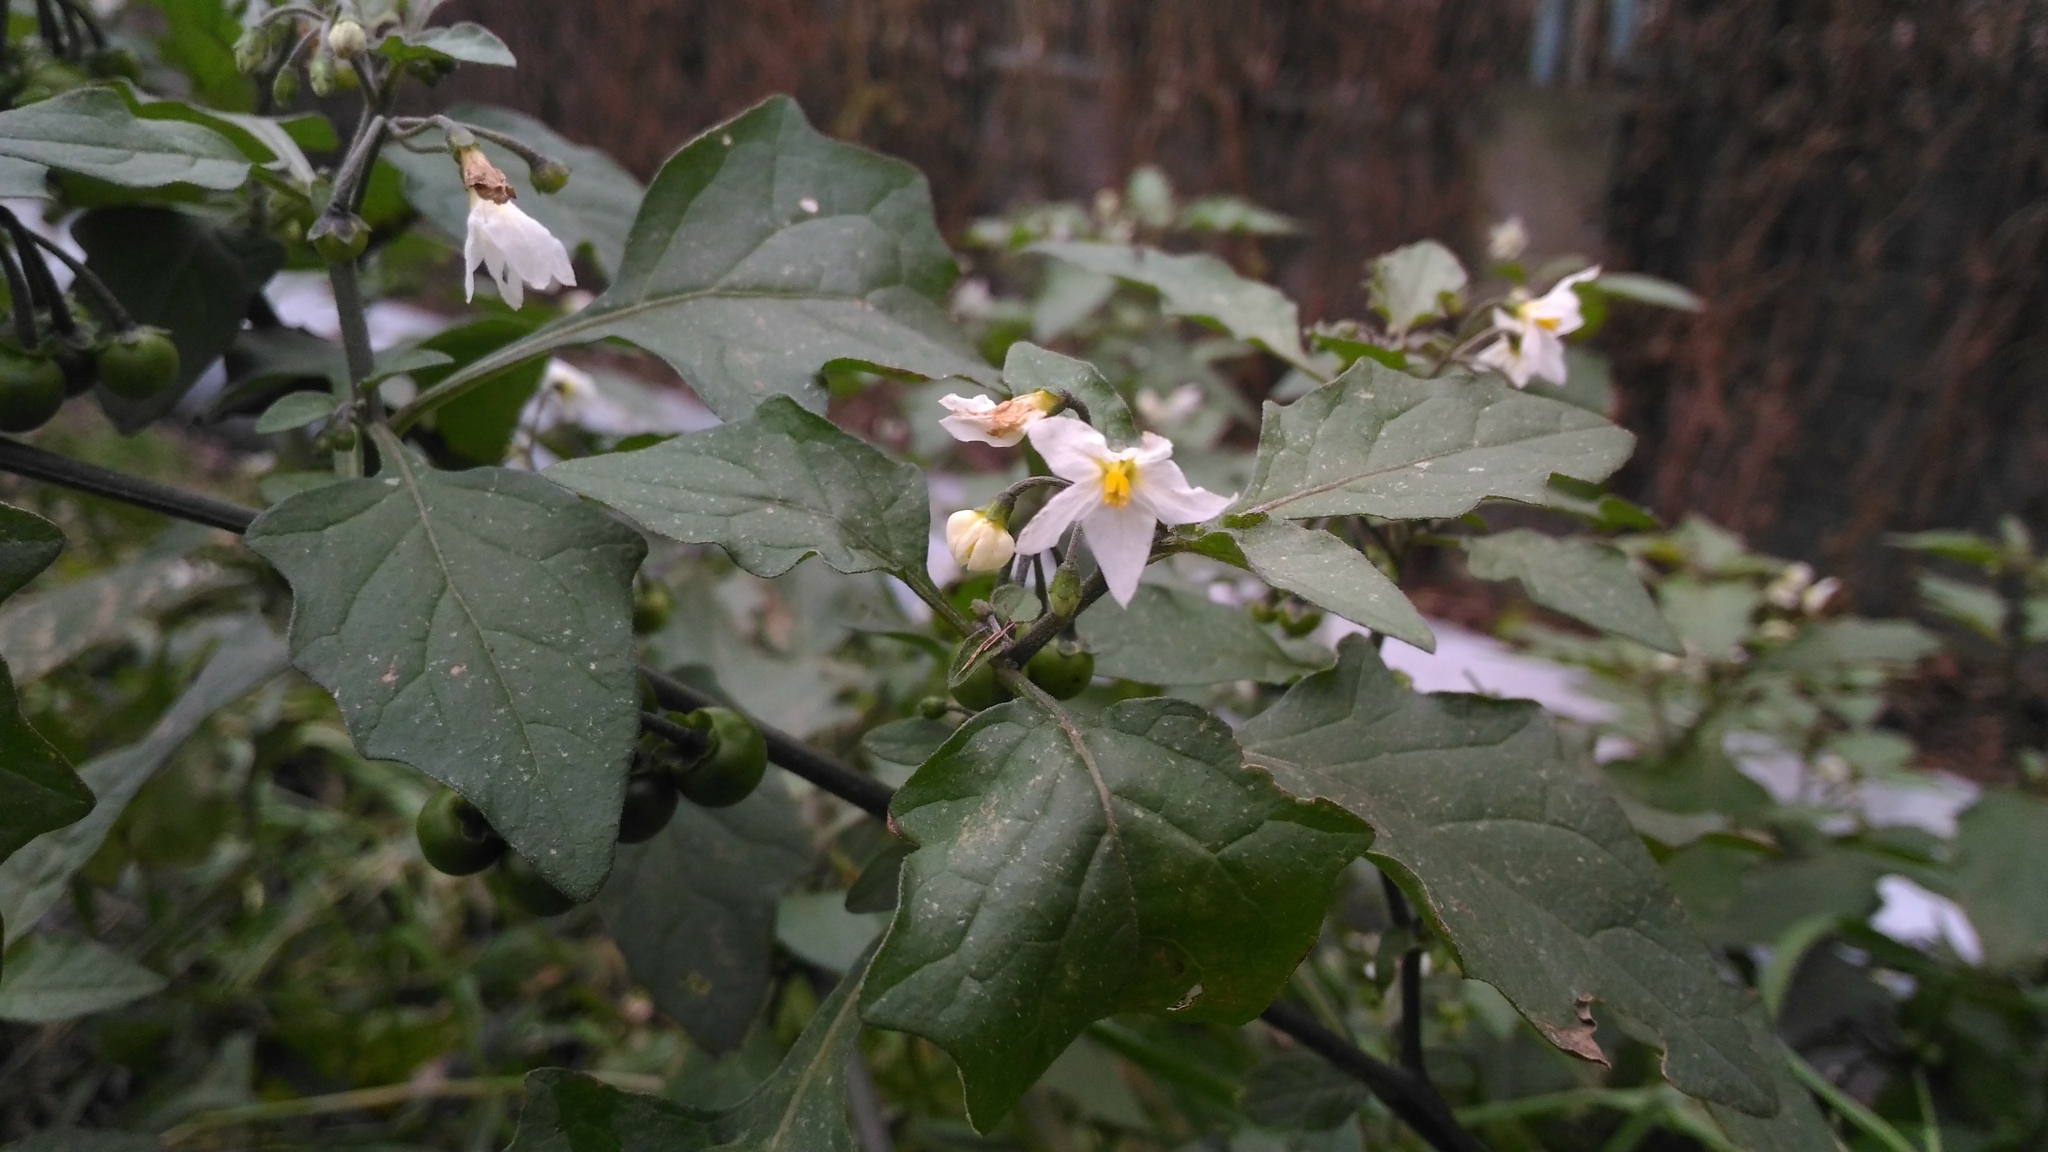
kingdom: Plantae
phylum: Tracheophyta
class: Magnoliopsida
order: Solanales
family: Solanaceae
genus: Solanum
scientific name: Solanum nigrum
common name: Black nightshade
